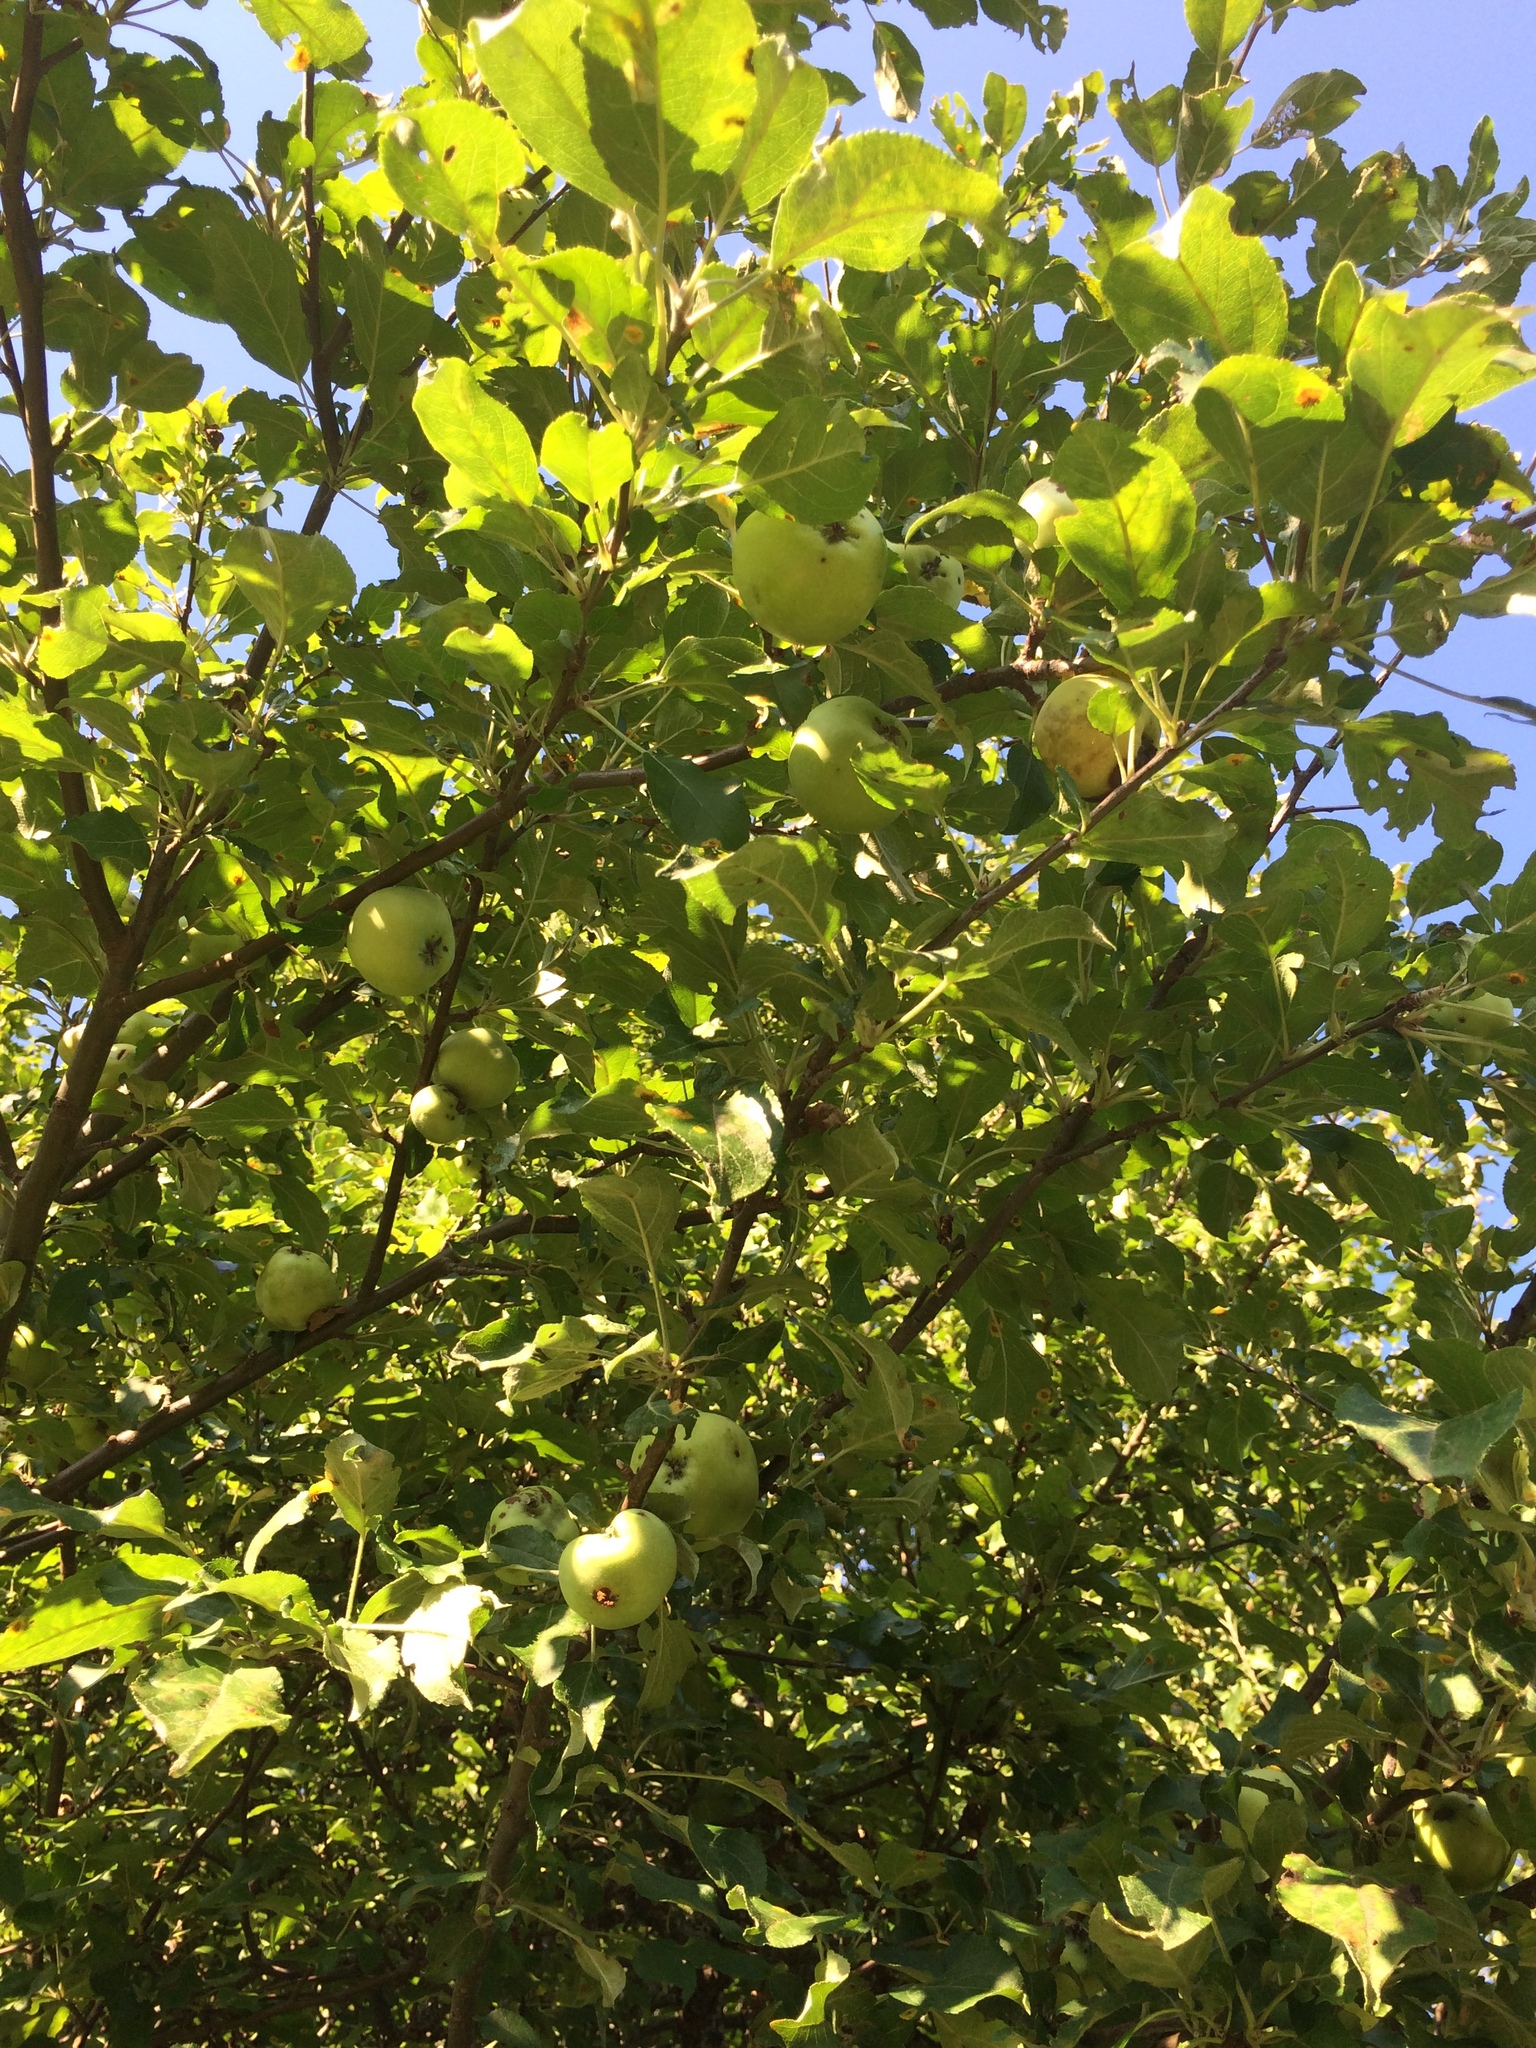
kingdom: Plantae
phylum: Tracheophyta
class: Magnoliopsida
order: Rosales
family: Rosaceae
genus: Malus
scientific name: Malus domestica
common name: Apple
